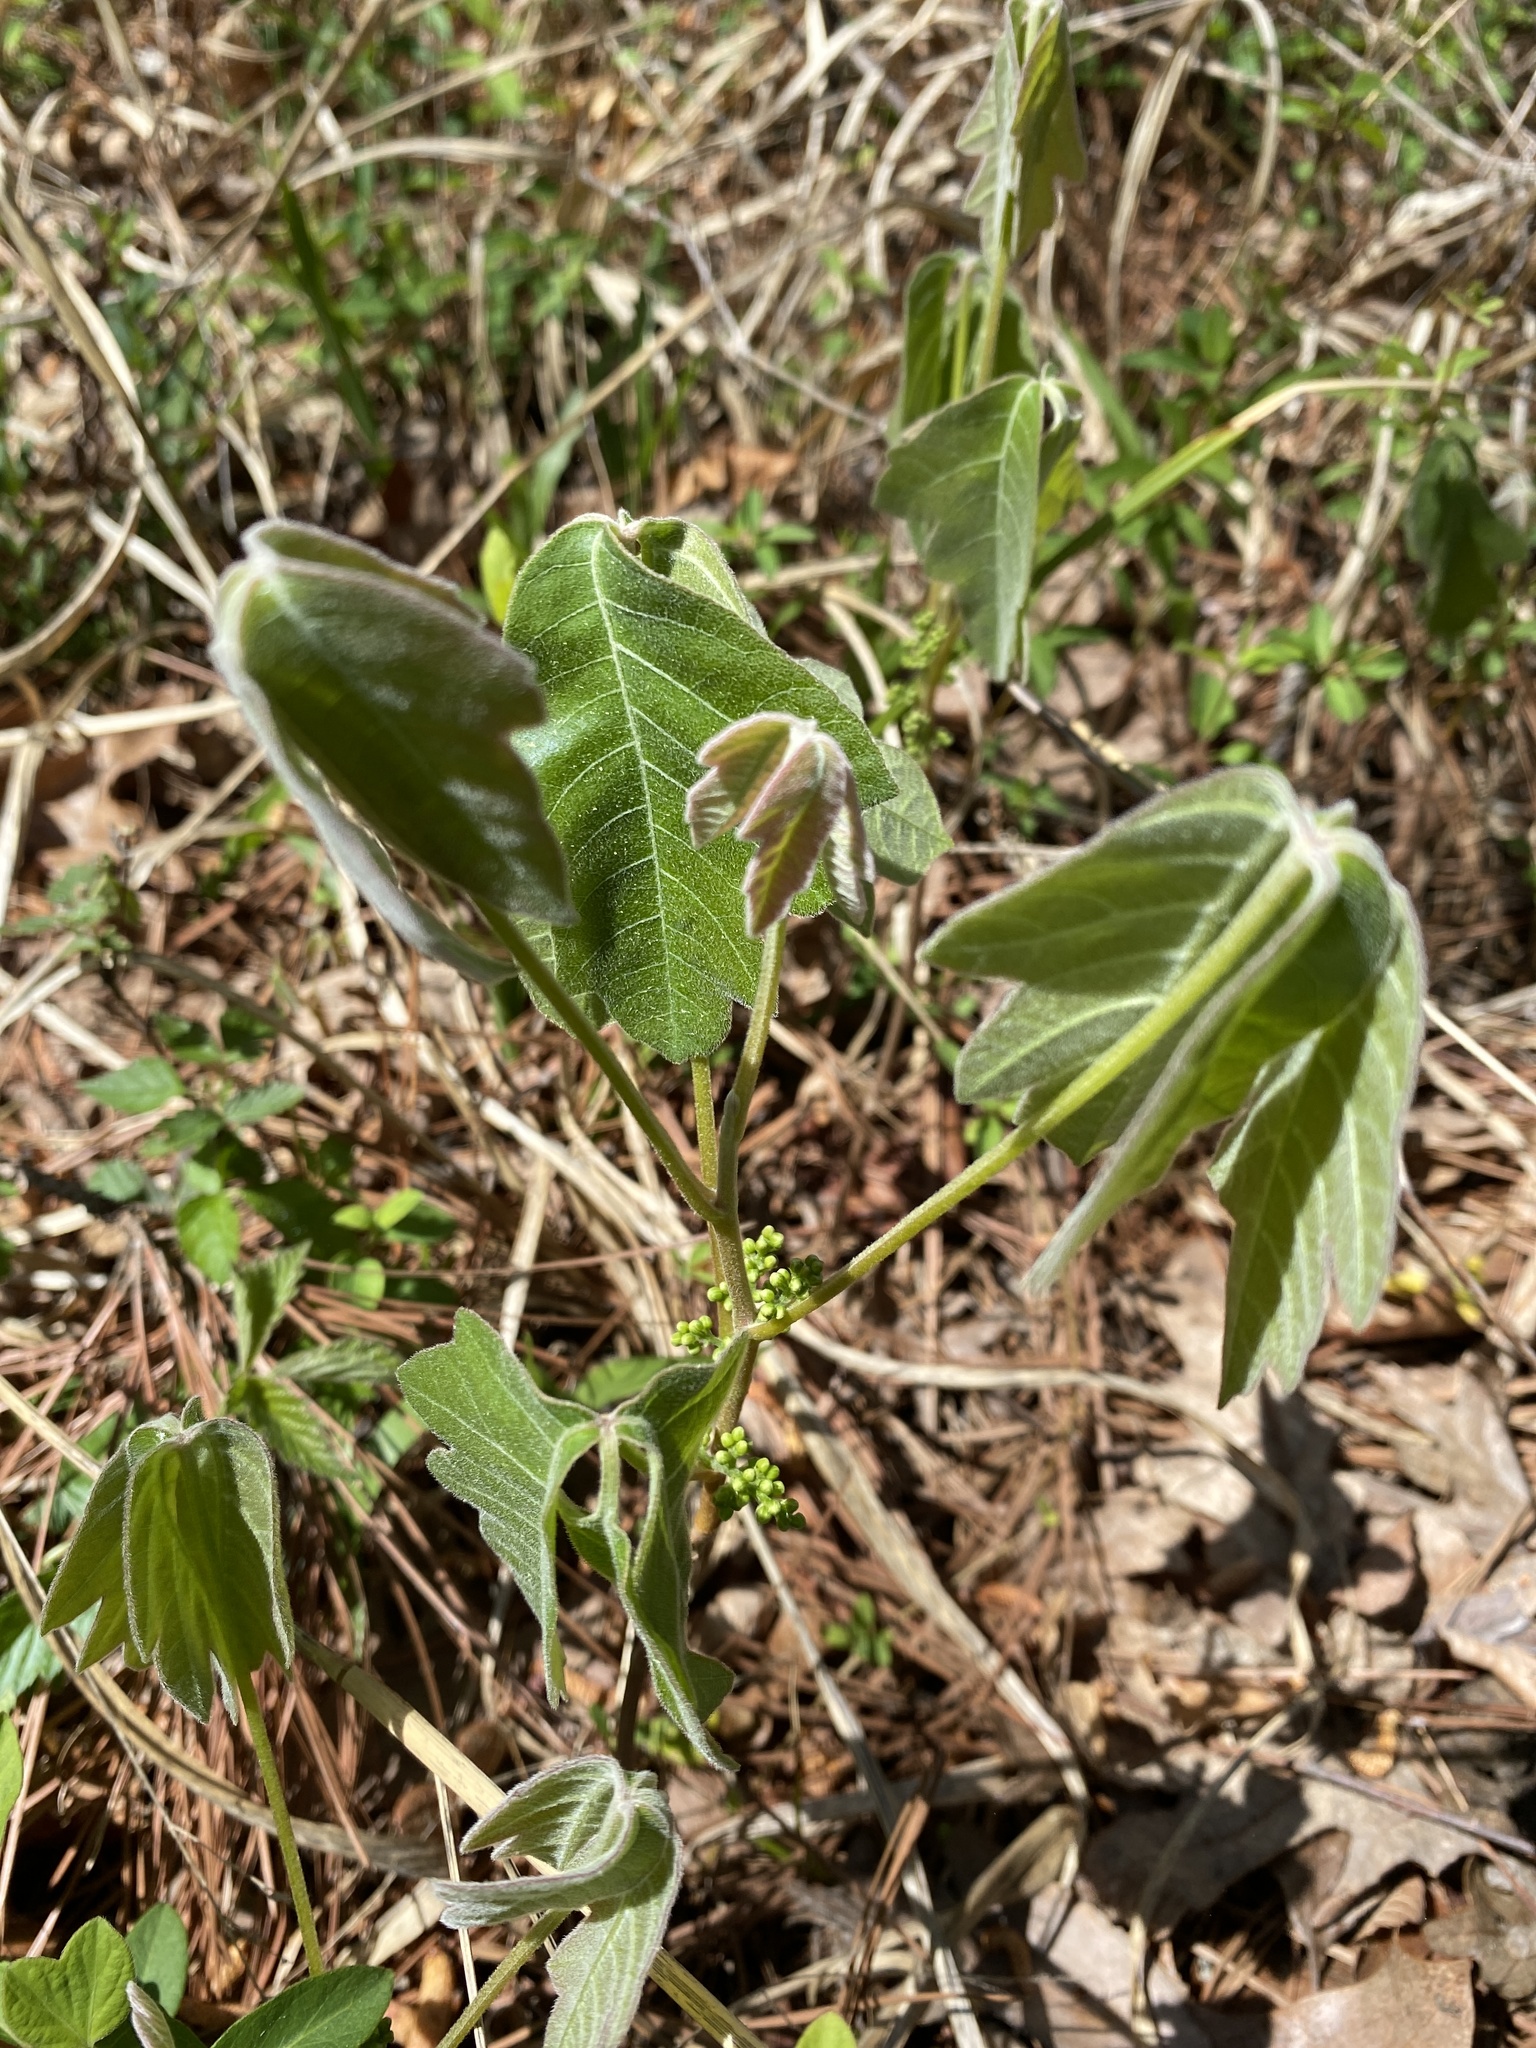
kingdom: Plantae
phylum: Tracheophyta
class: Magnoliopsida
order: Sapindales
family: Anacardiaceae
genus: Toxicodendron
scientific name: Toxicodendron pubescens
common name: Eastern poison-oak
